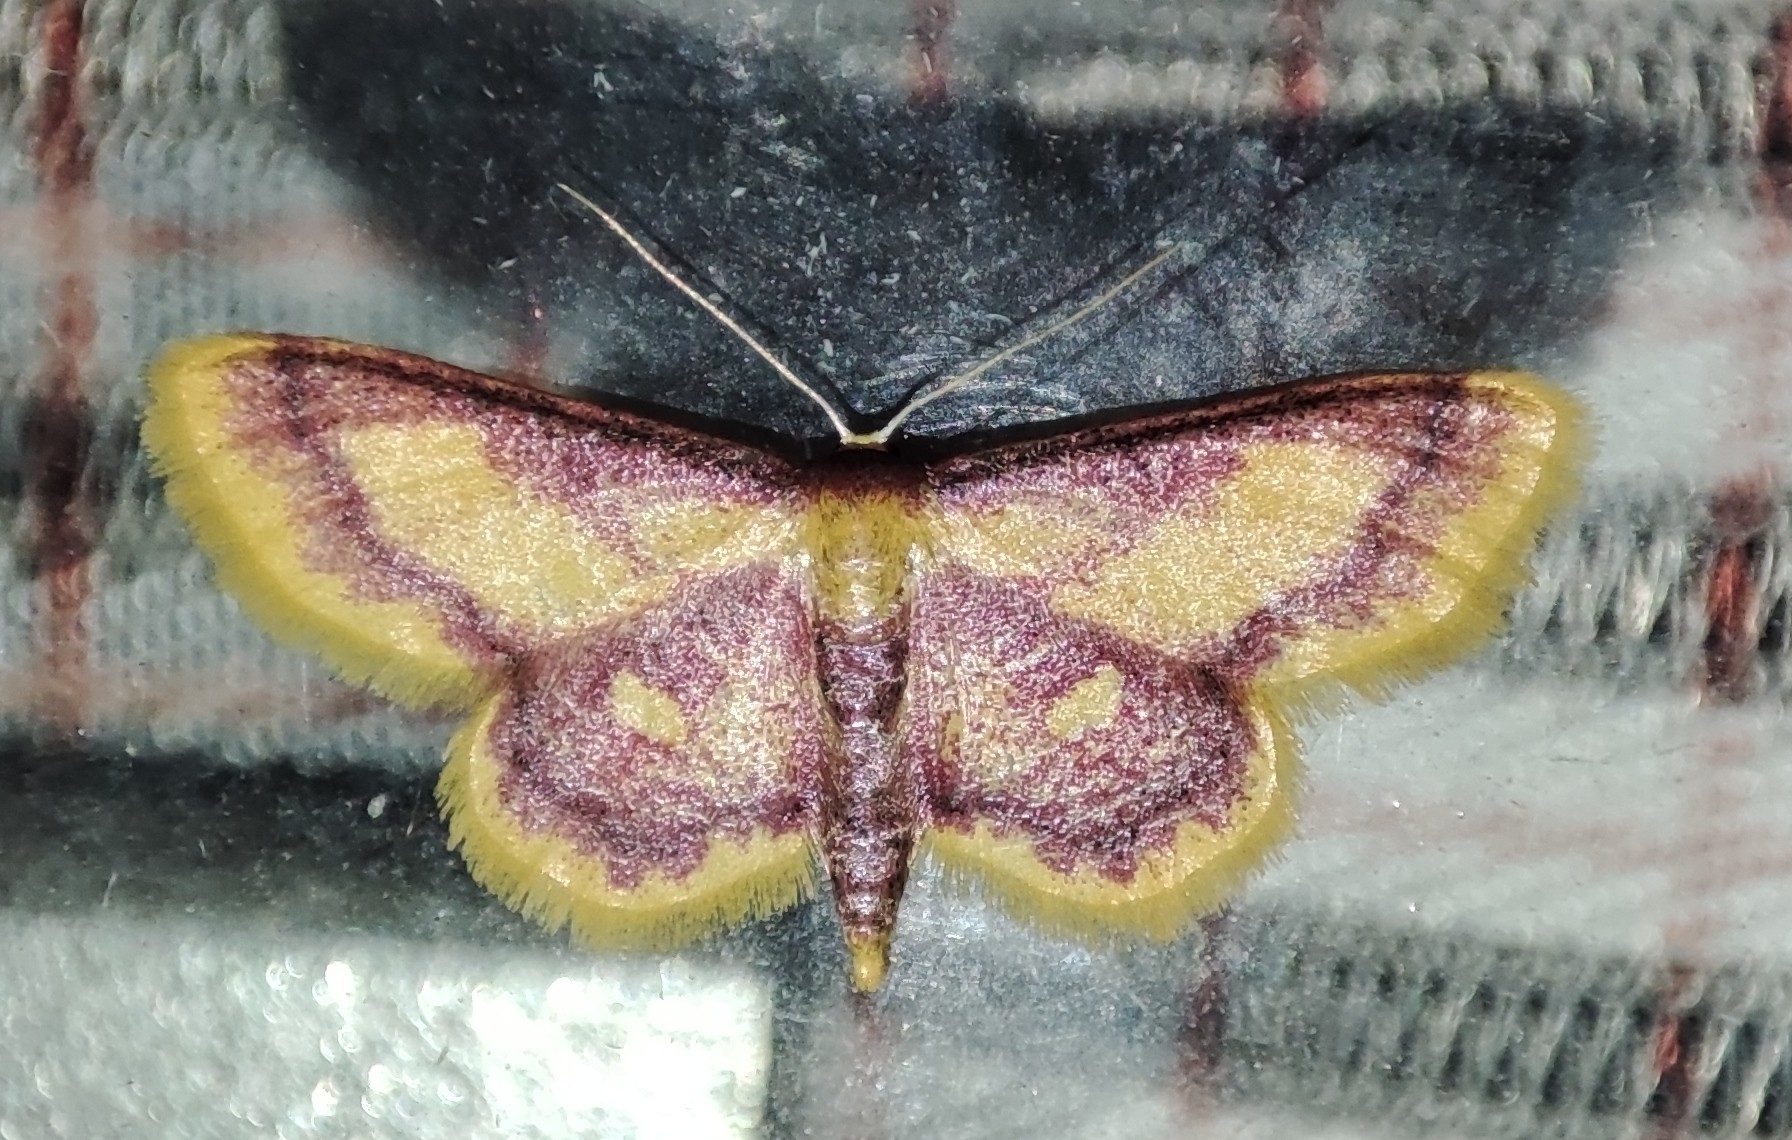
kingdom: Animalia
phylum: Arthropoda
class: Insecta
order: Lepidoptera
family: Geometridae
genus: Idaea
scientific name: Idaea muricata
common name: Purple-bordered gold
